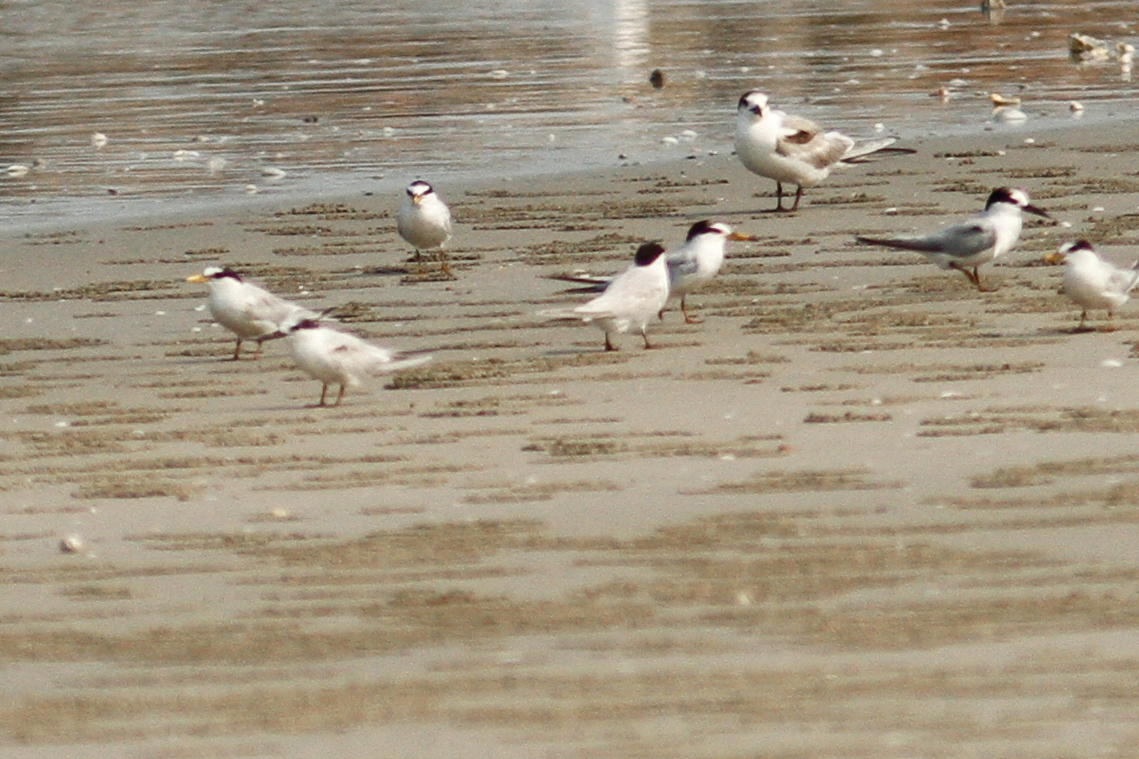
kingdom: Animalia
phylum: Chordata
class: Aves
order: Charadriiformes
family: Laridae
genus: Sternula
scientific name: Sternula albifrons
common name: Little tern
